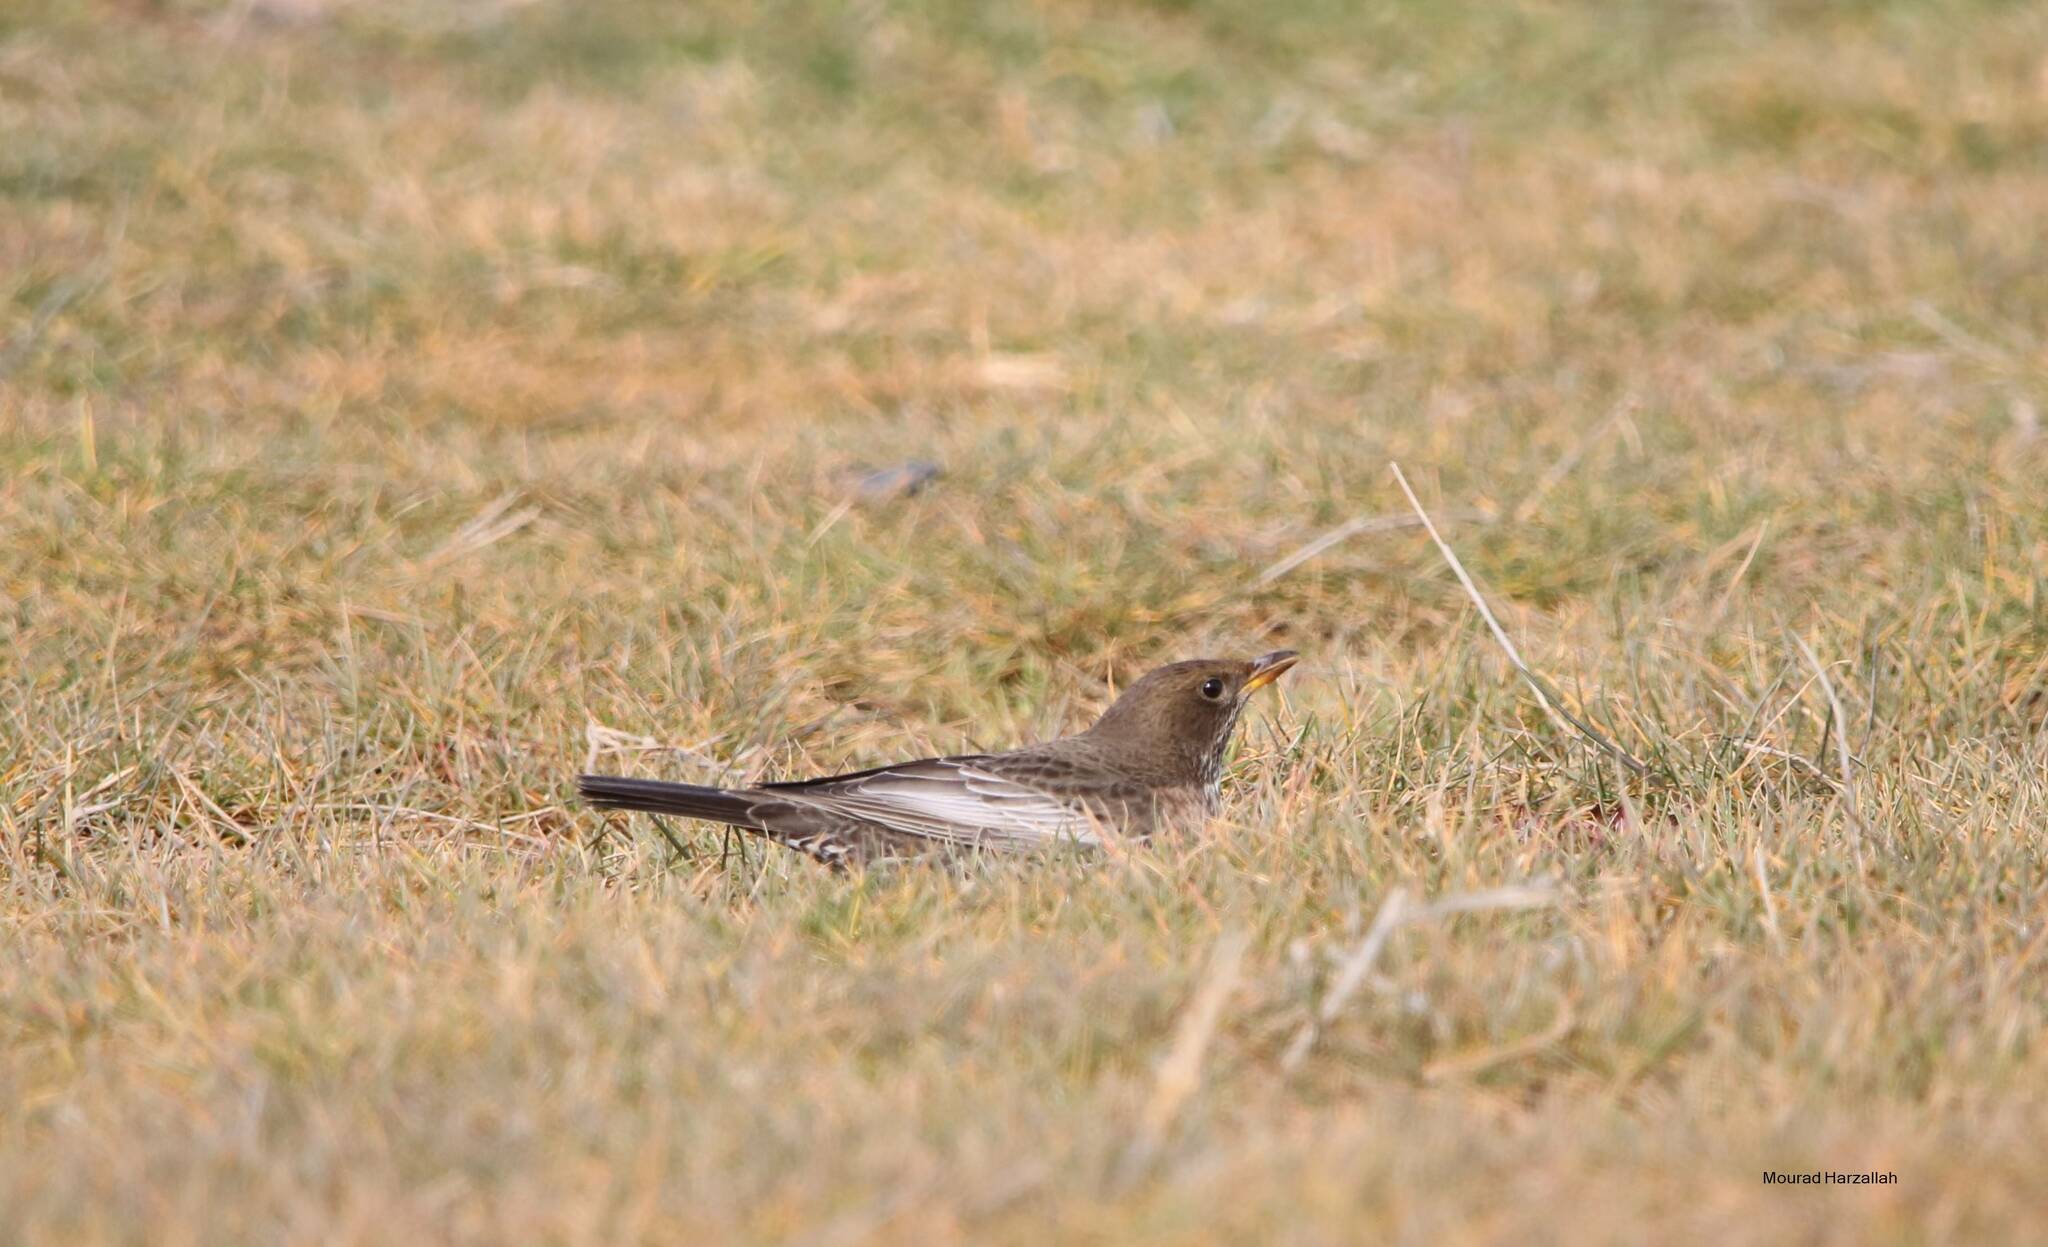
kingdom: Animalia
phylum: Chordata
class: Aves
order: Passeriformes
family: Turdidae
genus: Turdus
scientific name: Turdus torquatus
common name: Ring ouzel
